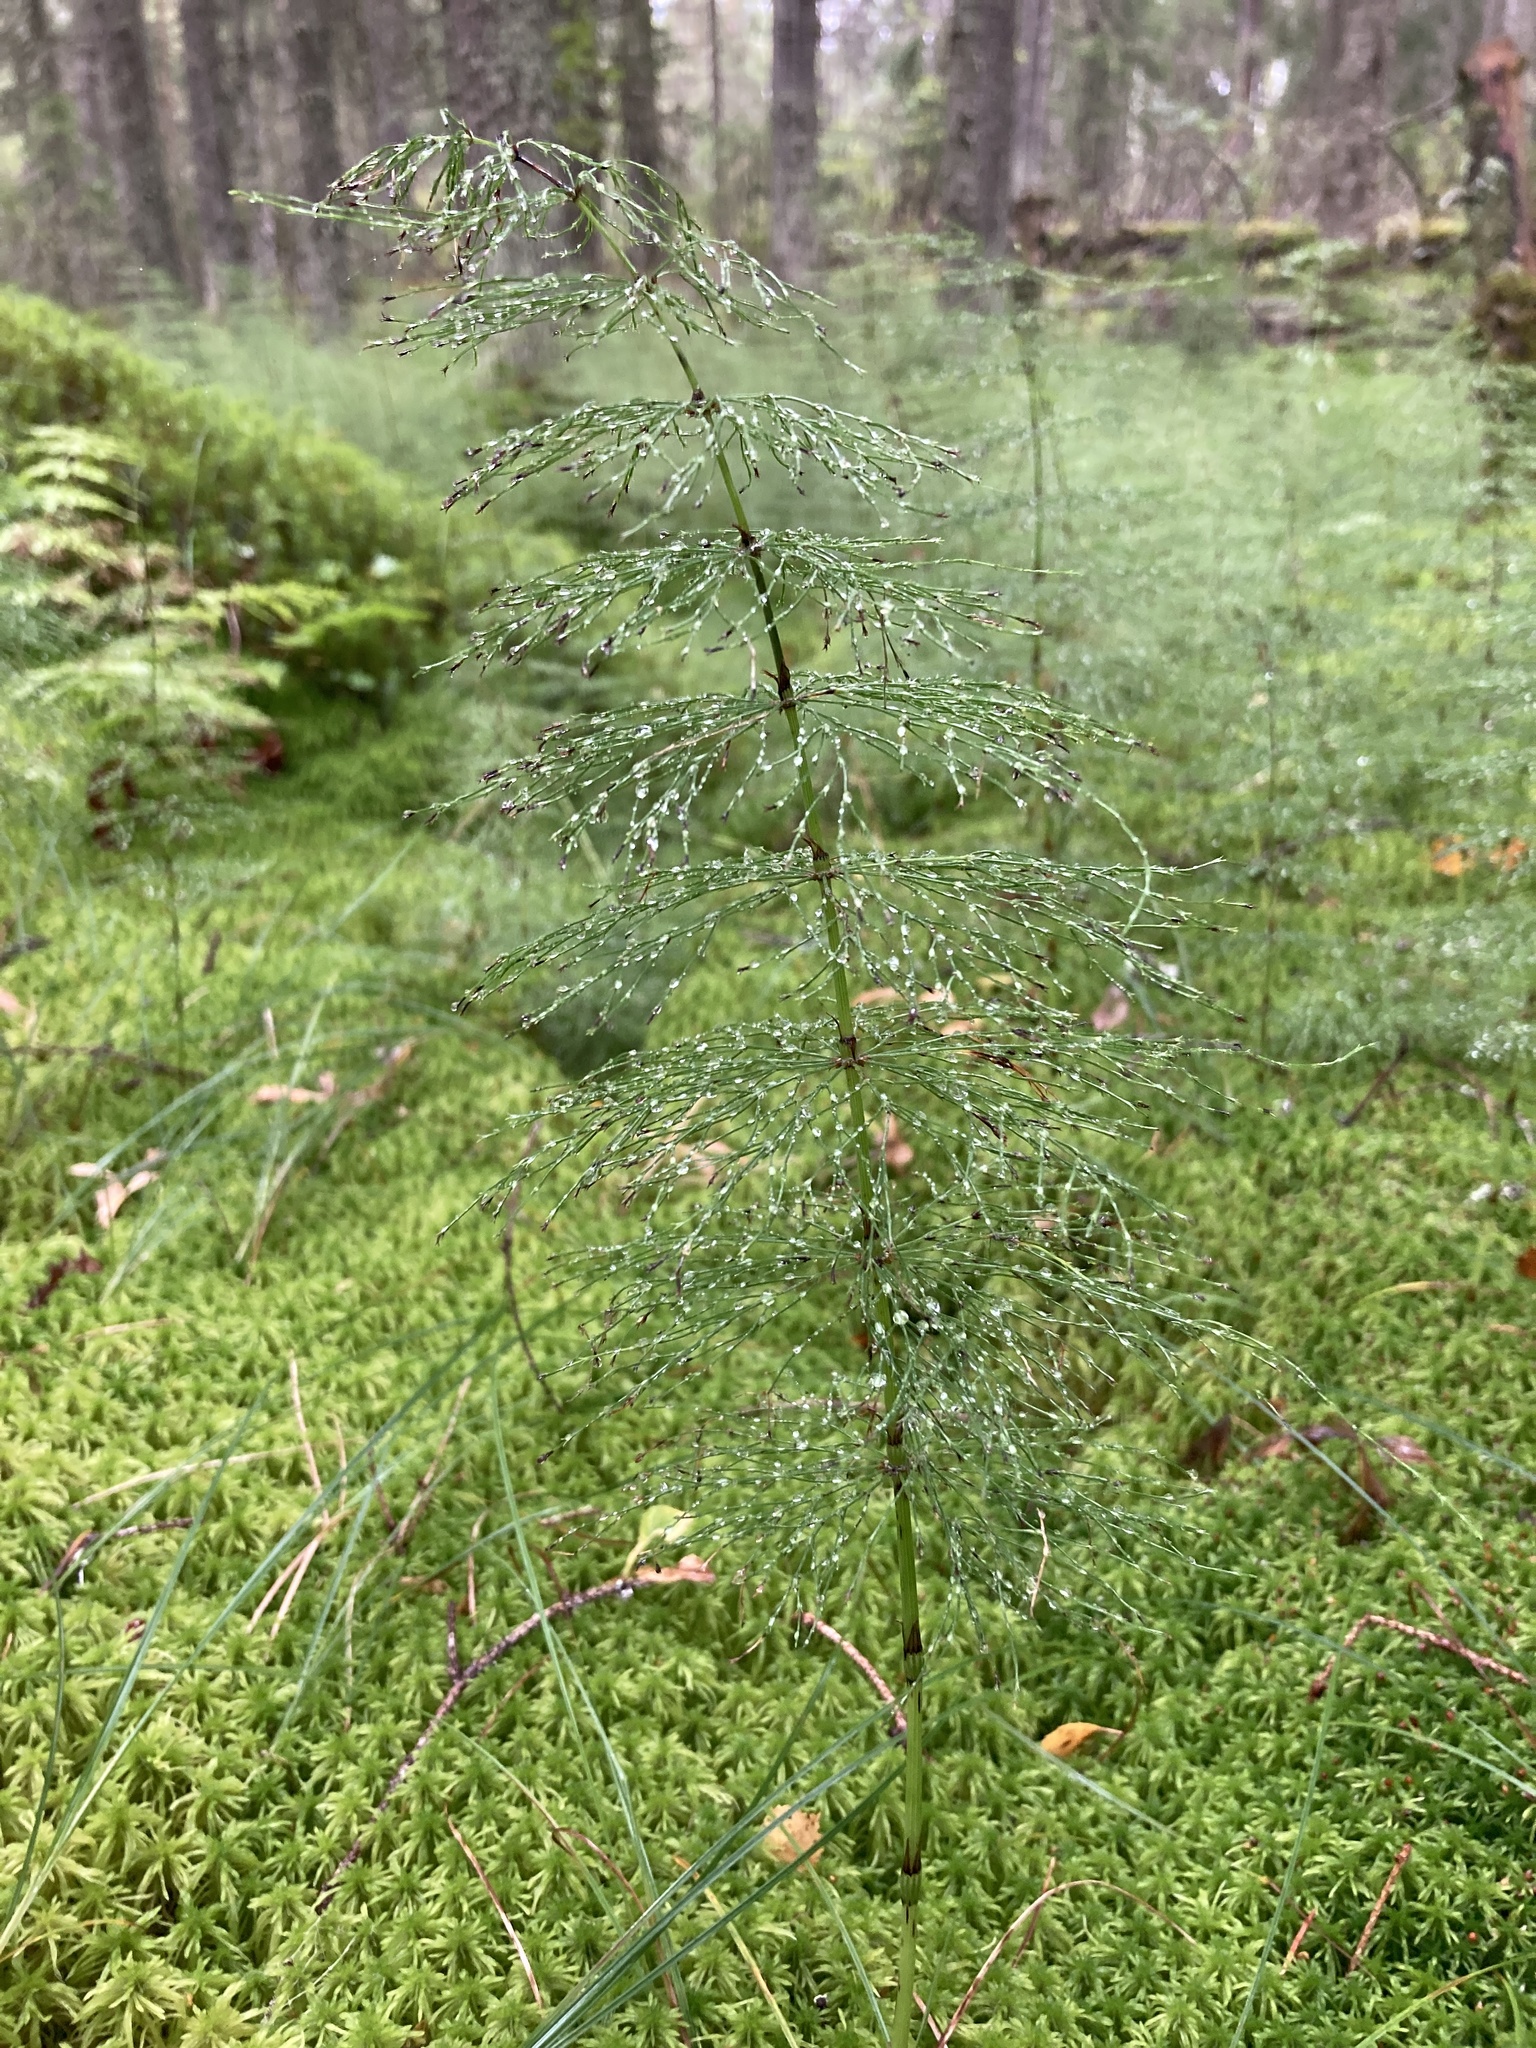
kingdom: Plantae
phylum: Tracheophyta
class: Polypodiopsida
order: Equisetales
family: Equisetaceae
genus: Equisetum
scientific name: Equisetum sylvaticum
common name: Wood horsetail
